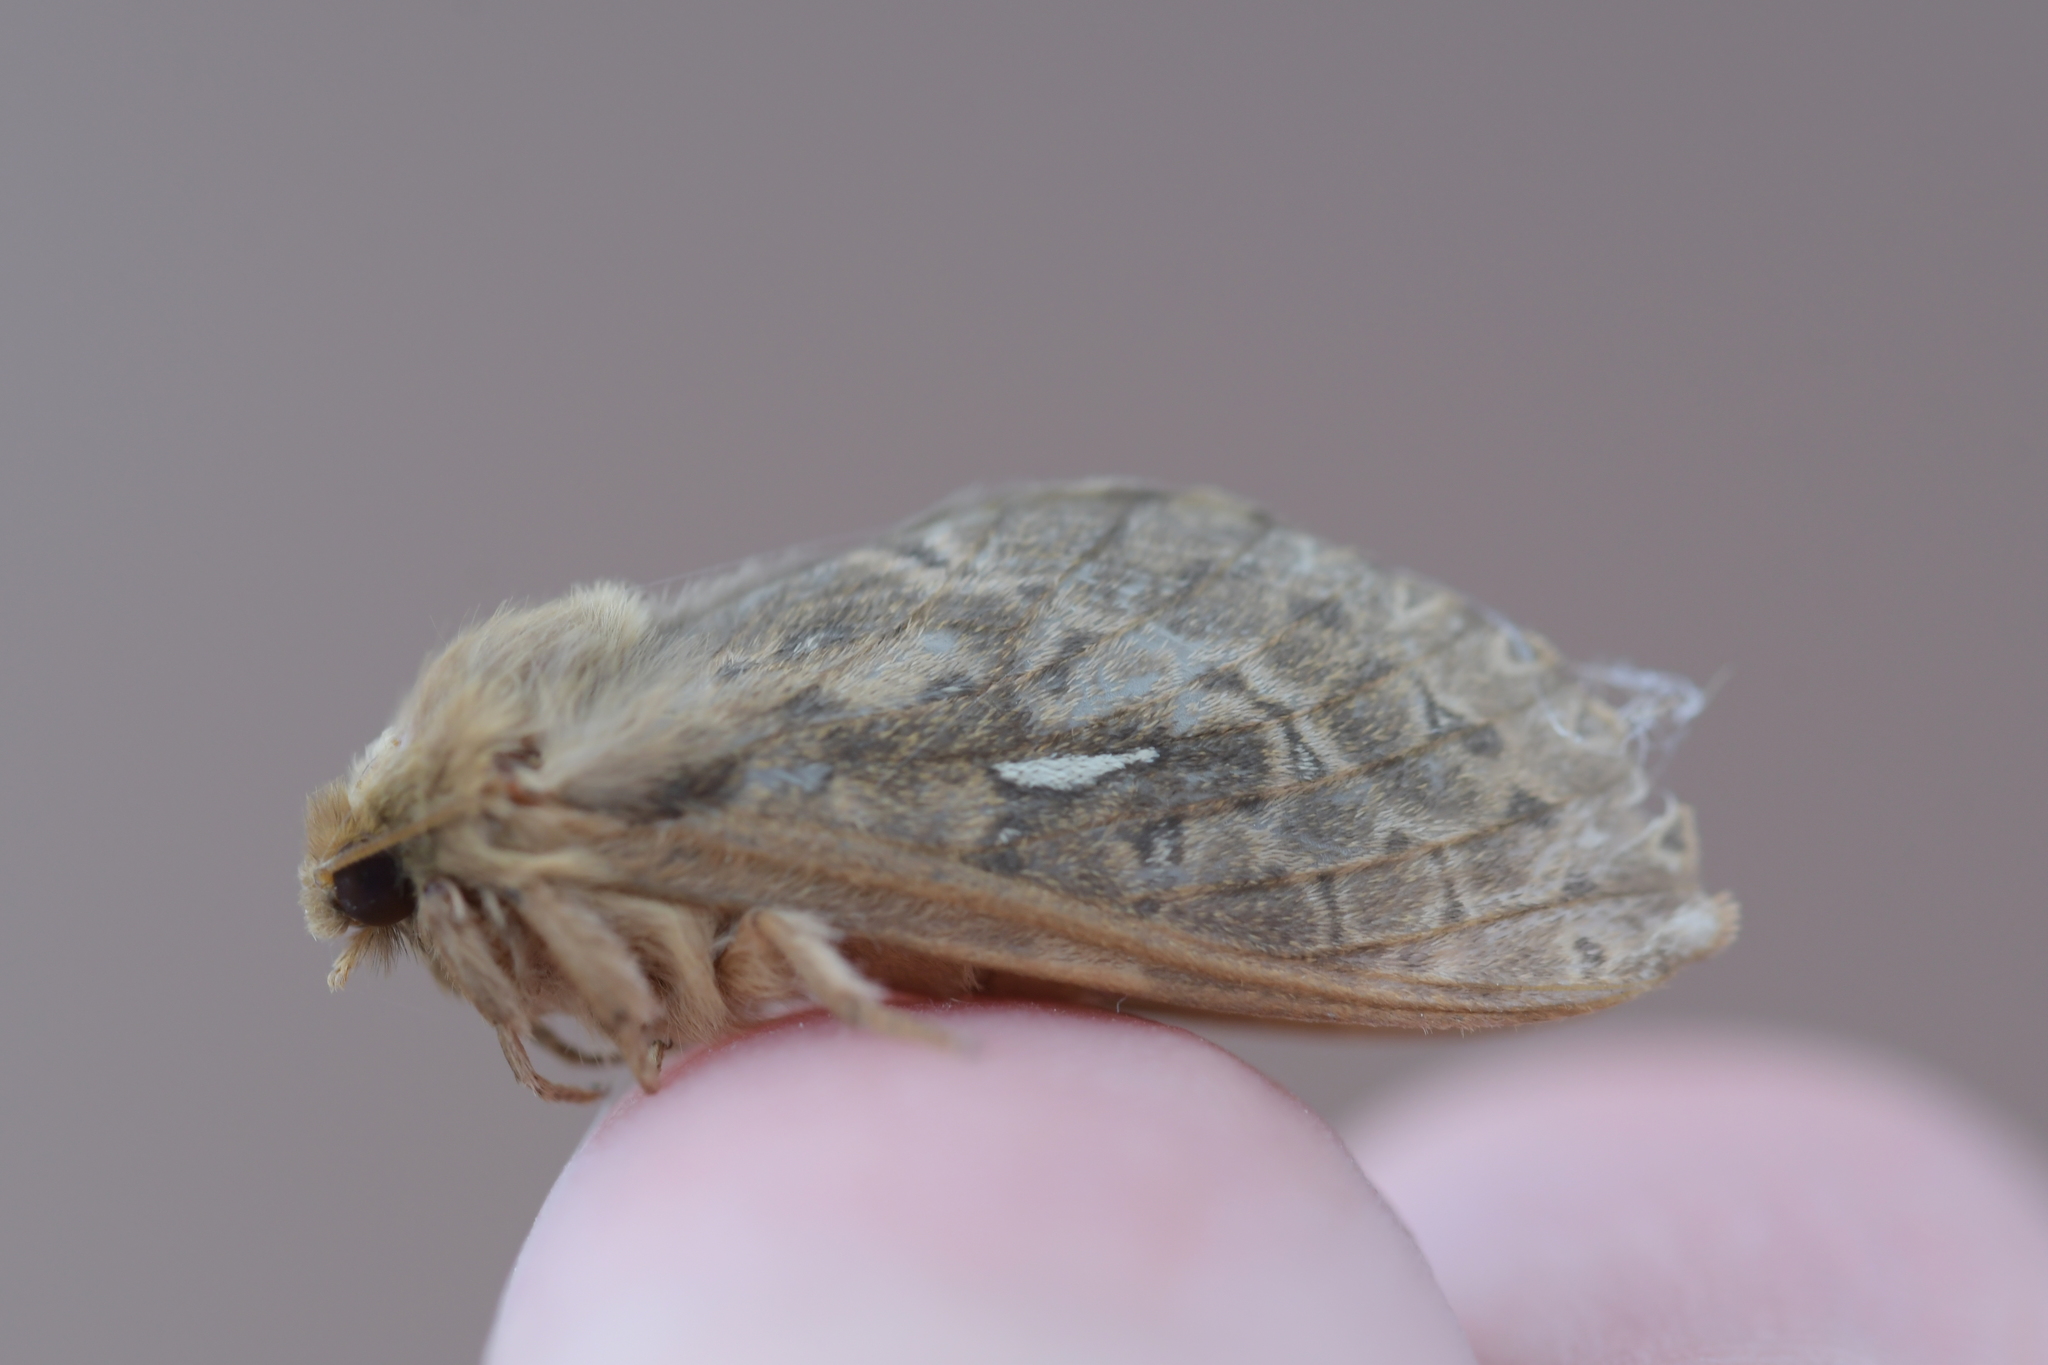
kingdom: Animalia
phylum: Arthropoda
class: Insecta
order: Lepidoptera
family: Hepialidae
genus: Wiseana
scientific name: Wiseana cervinata
